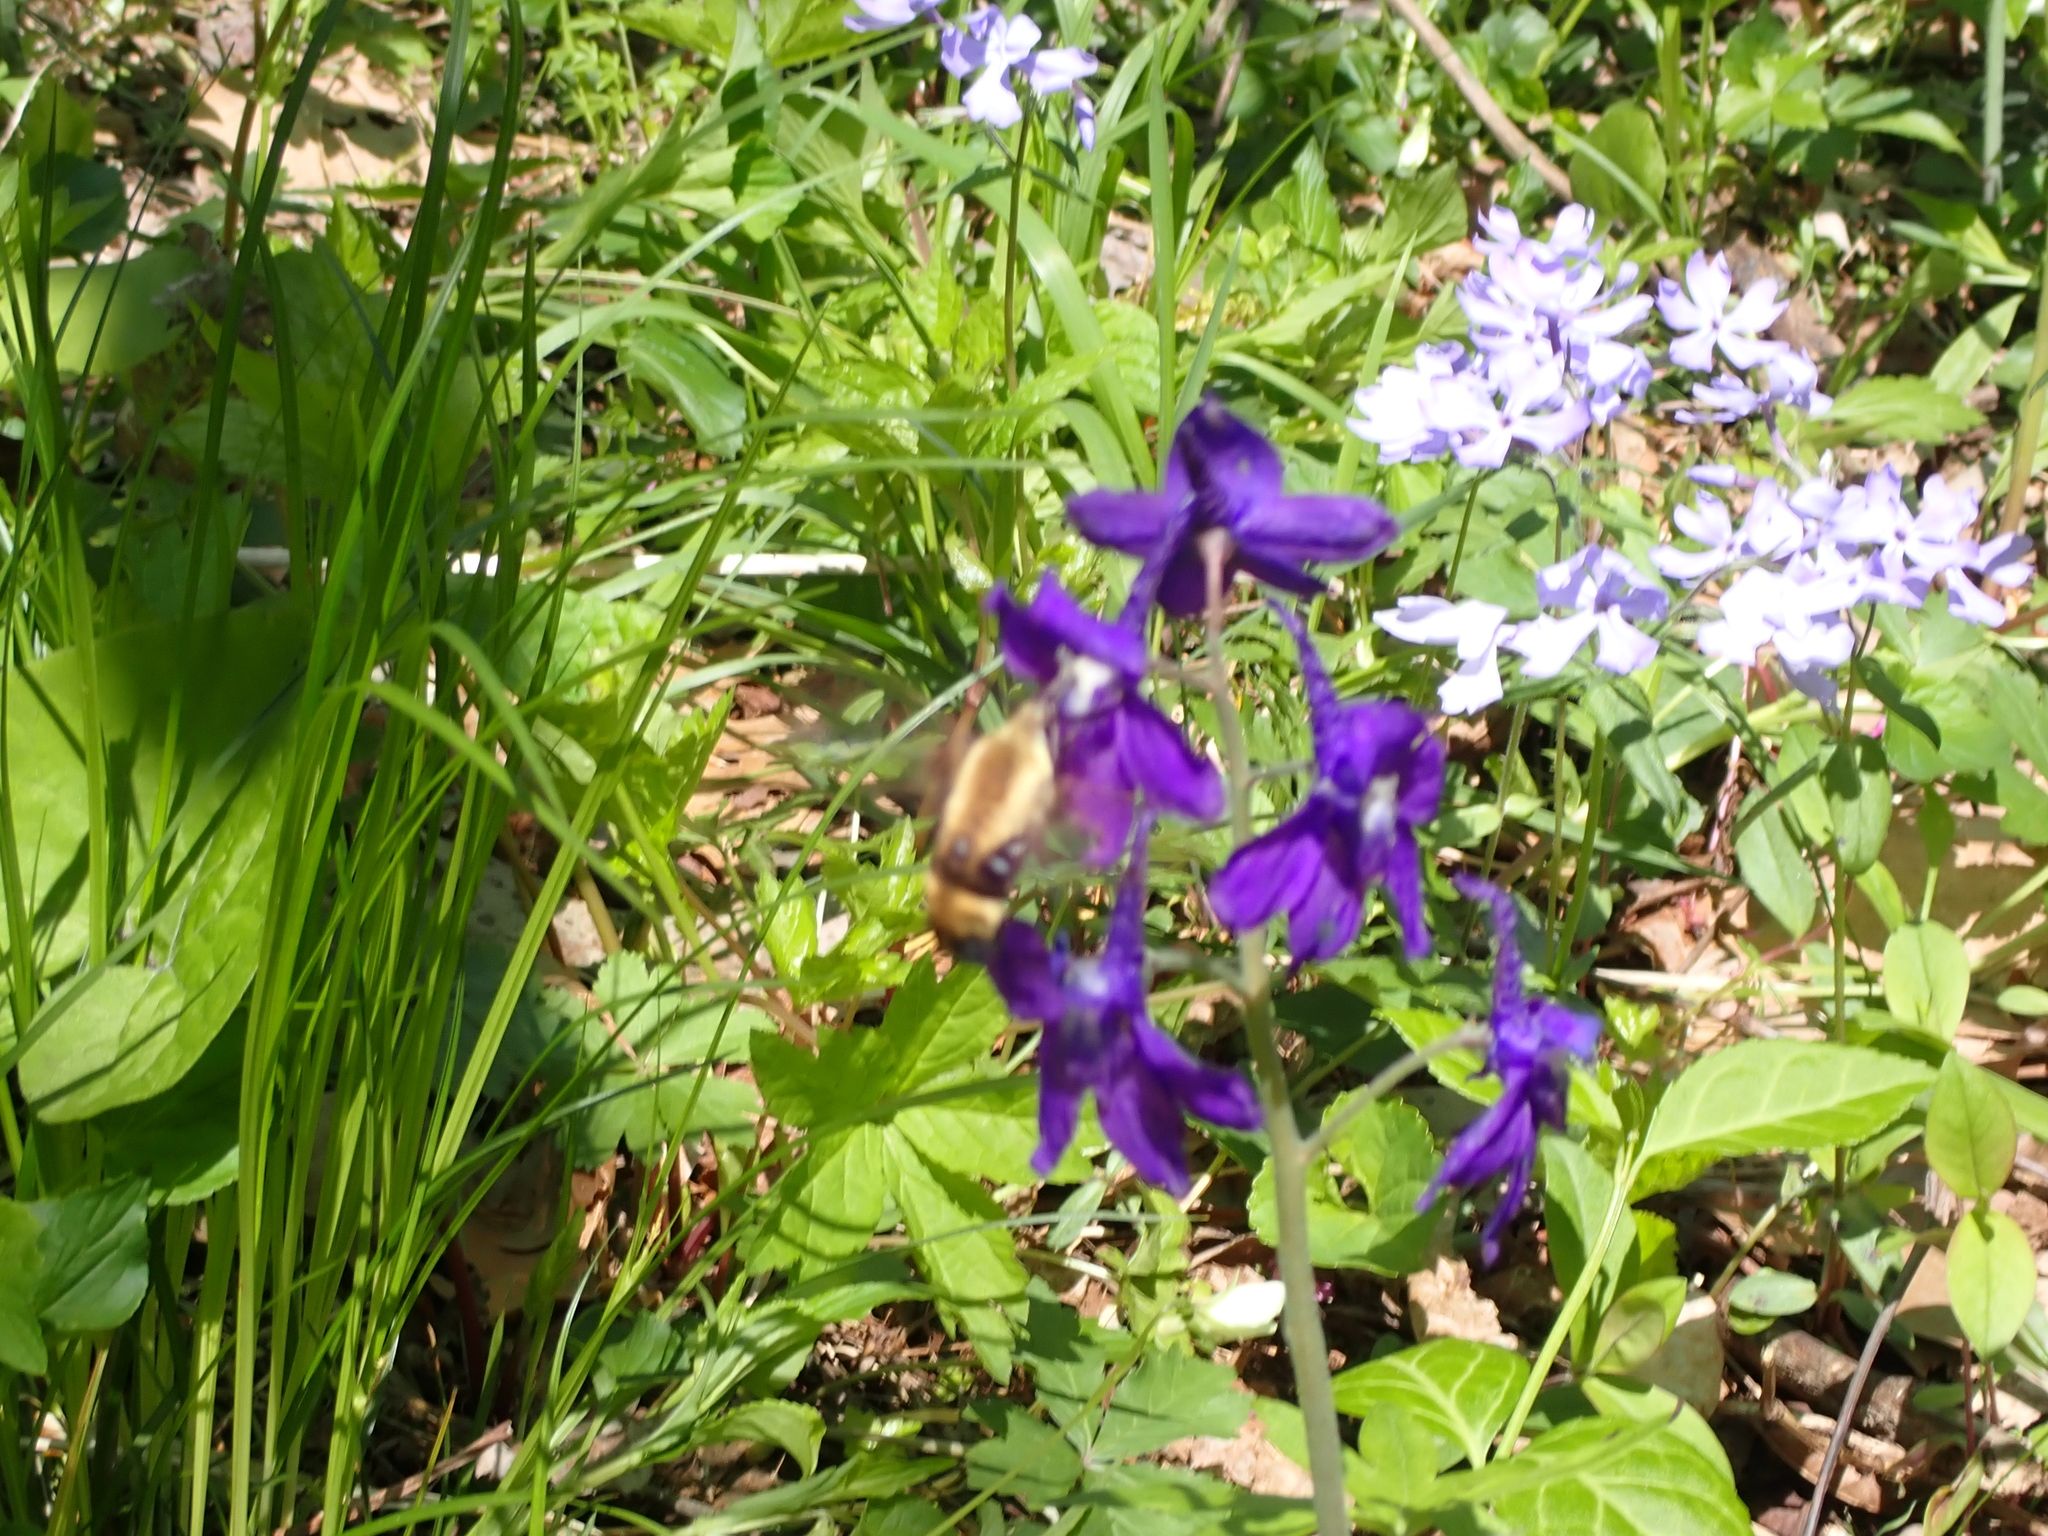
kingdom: Animalia
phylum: Arthropoda
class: Insecta
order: Lepidoptera
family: Sphingidae
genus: Hemaris
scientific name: Hemaris diffinis
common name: Bumblebee moth
